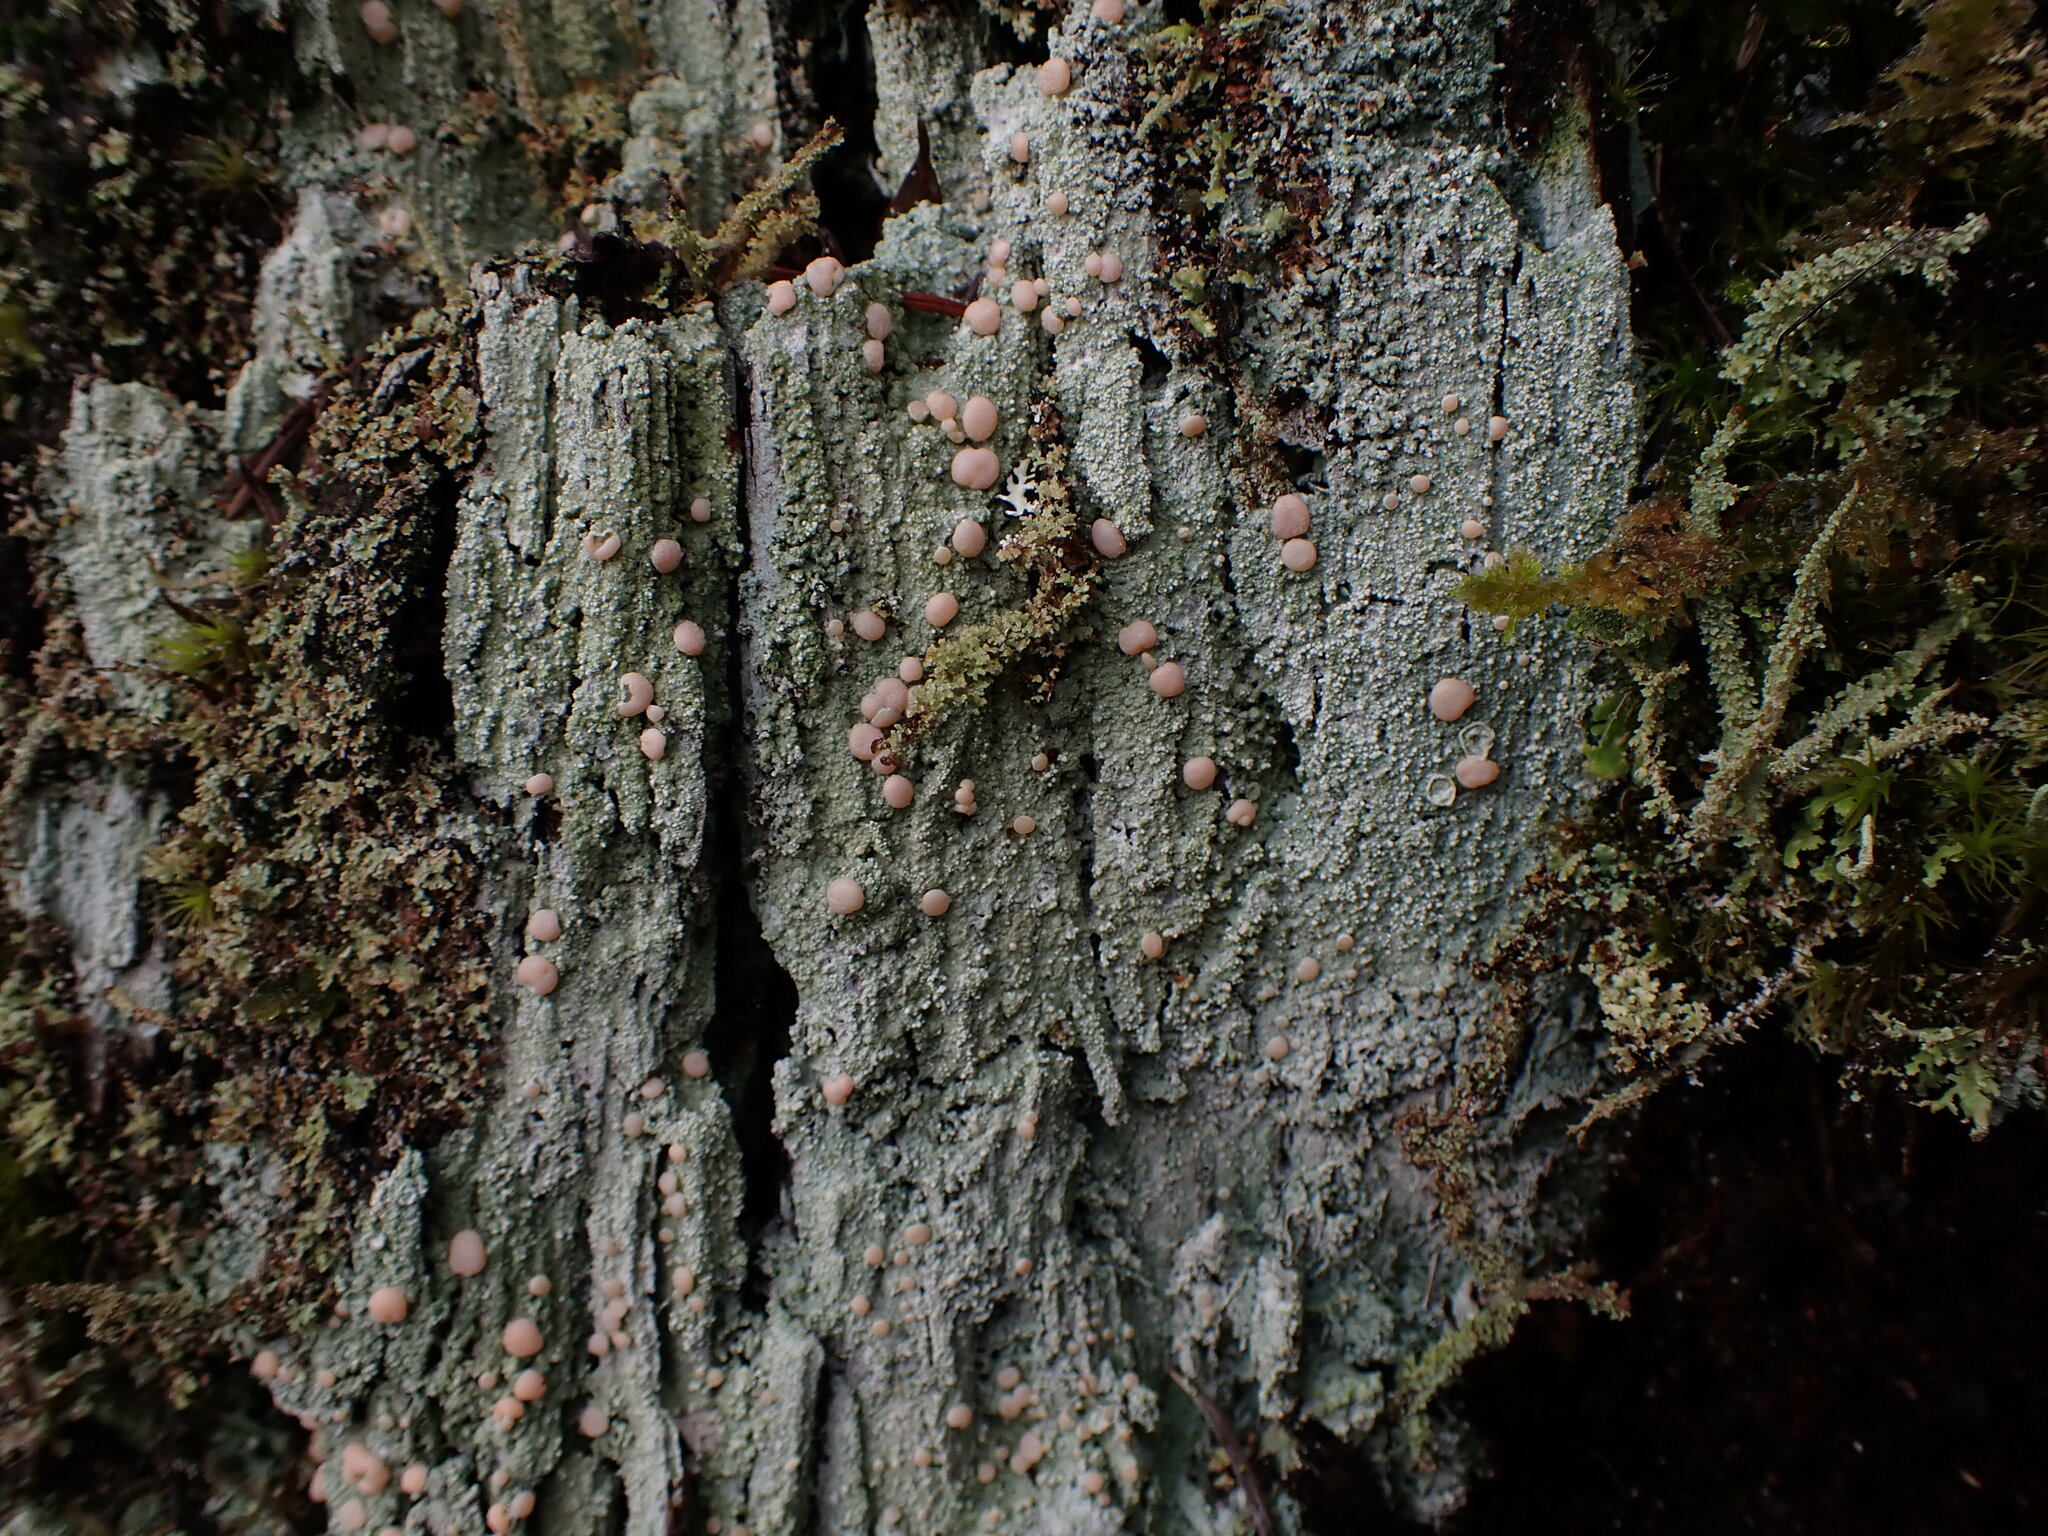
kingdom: Fungi
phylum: Ascomycota
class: Lecanoromycetes
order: Pertusariales
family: Icmadophilaceae
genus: Icmadophila
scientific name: Icmadophila ericetorum
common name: Candy lichen
